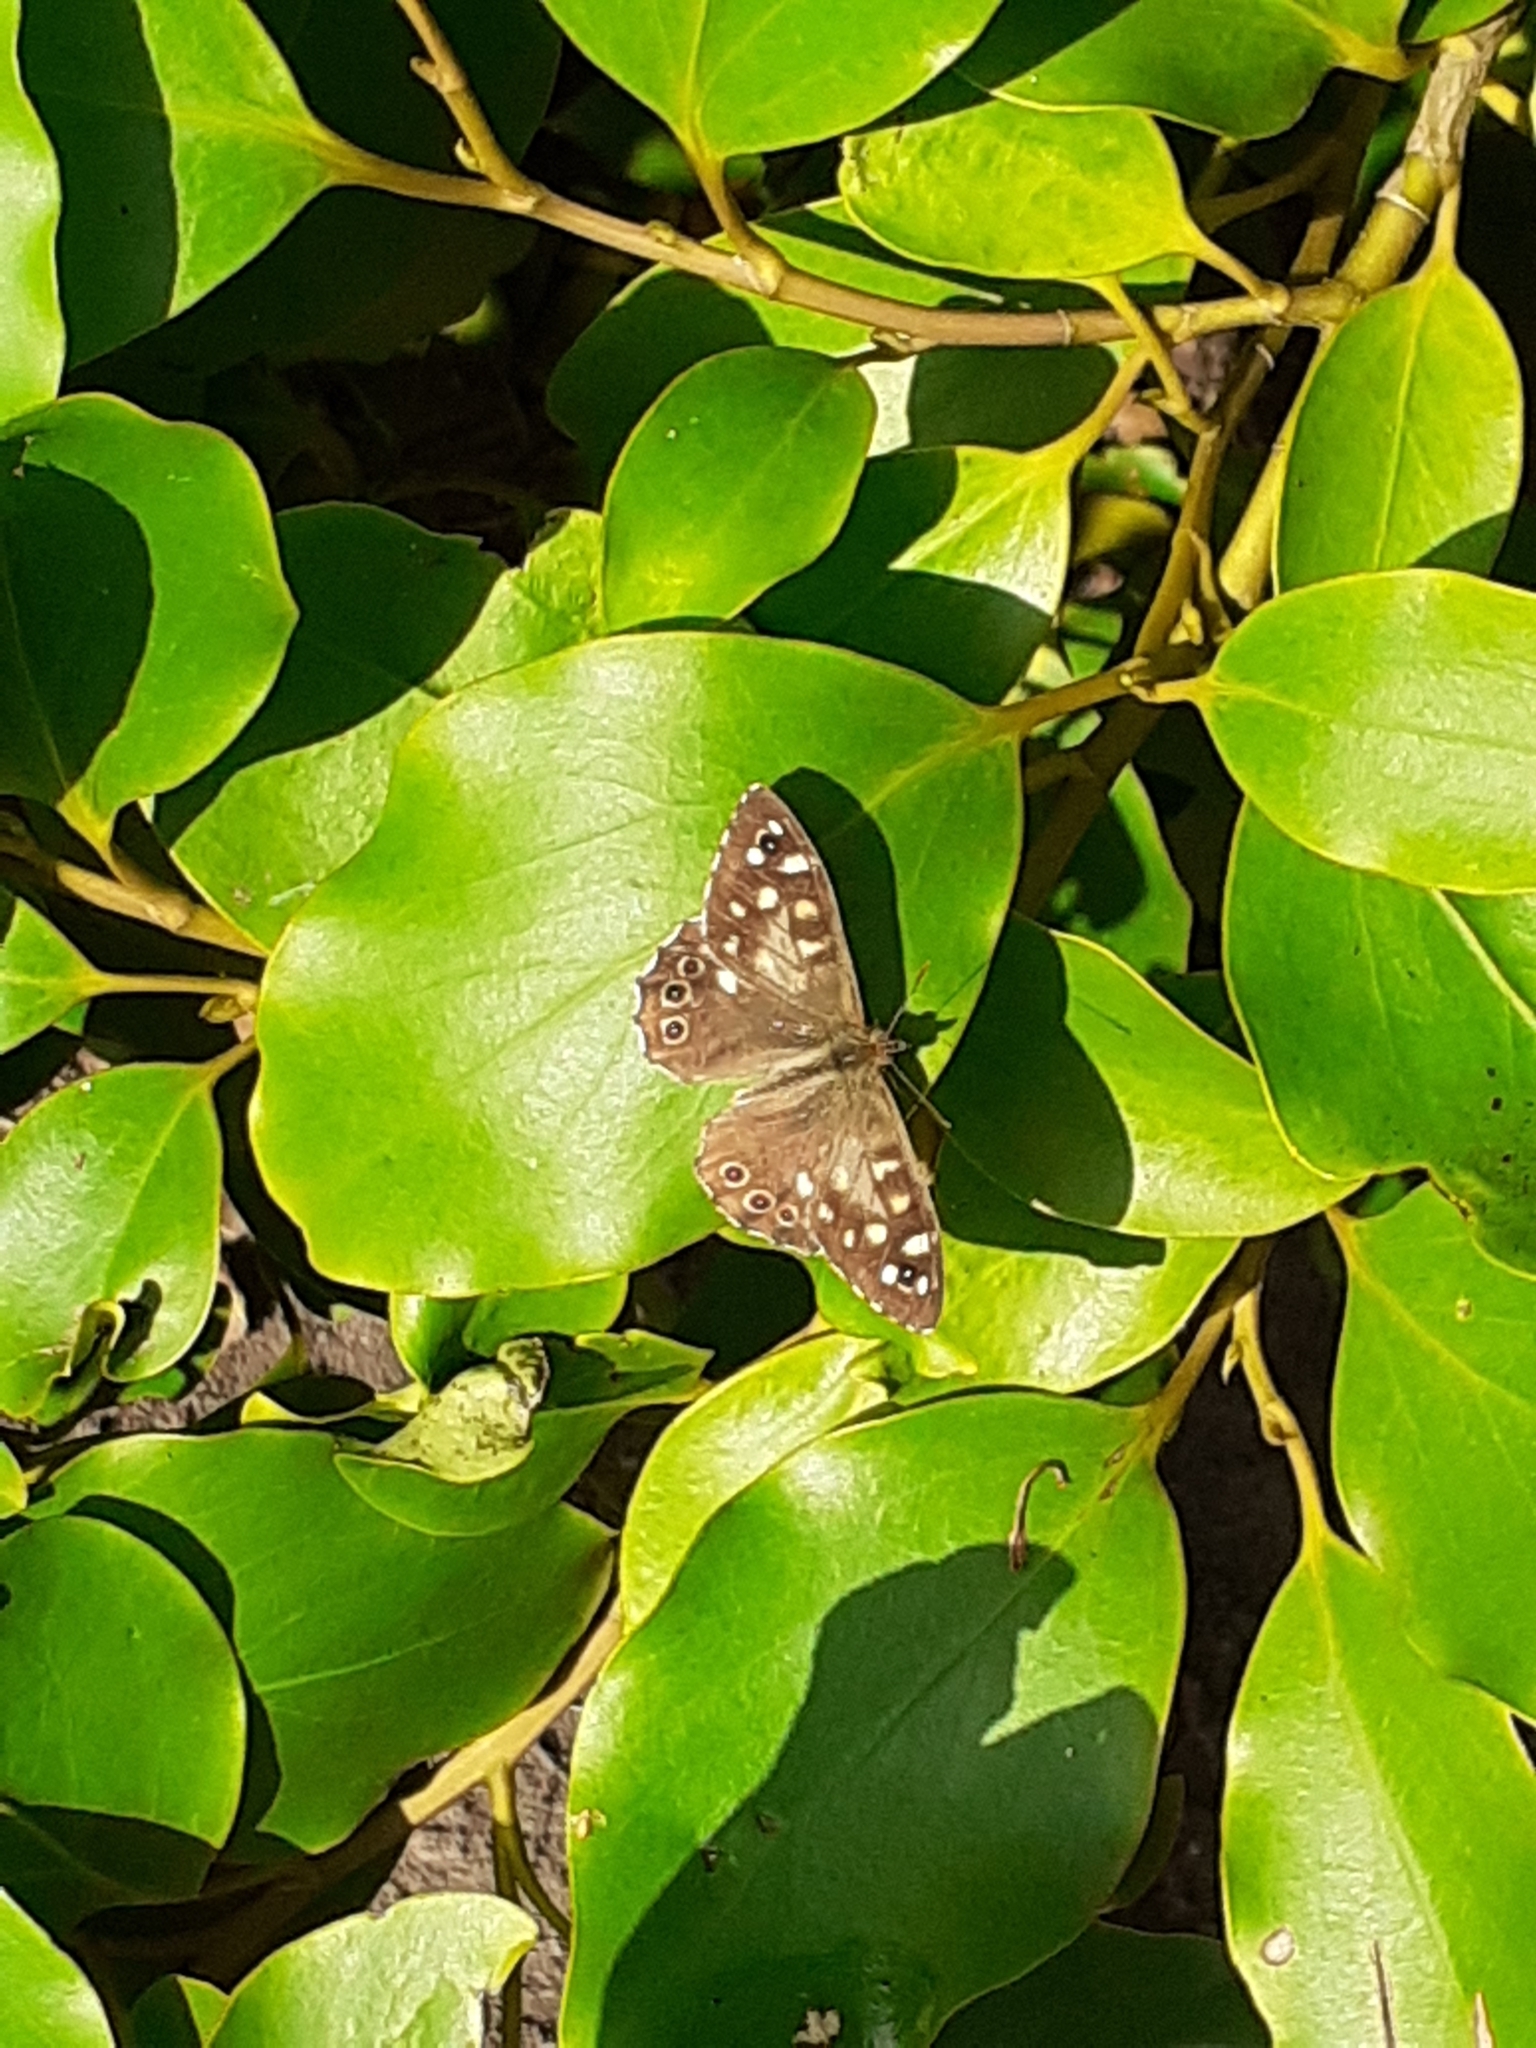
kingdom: Animalia
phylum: Arthropoda
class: Insecta
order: Lepidoptera
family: Nymphalidae
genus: Pararge
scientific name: Pararge aegeria
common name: Speckled wood
